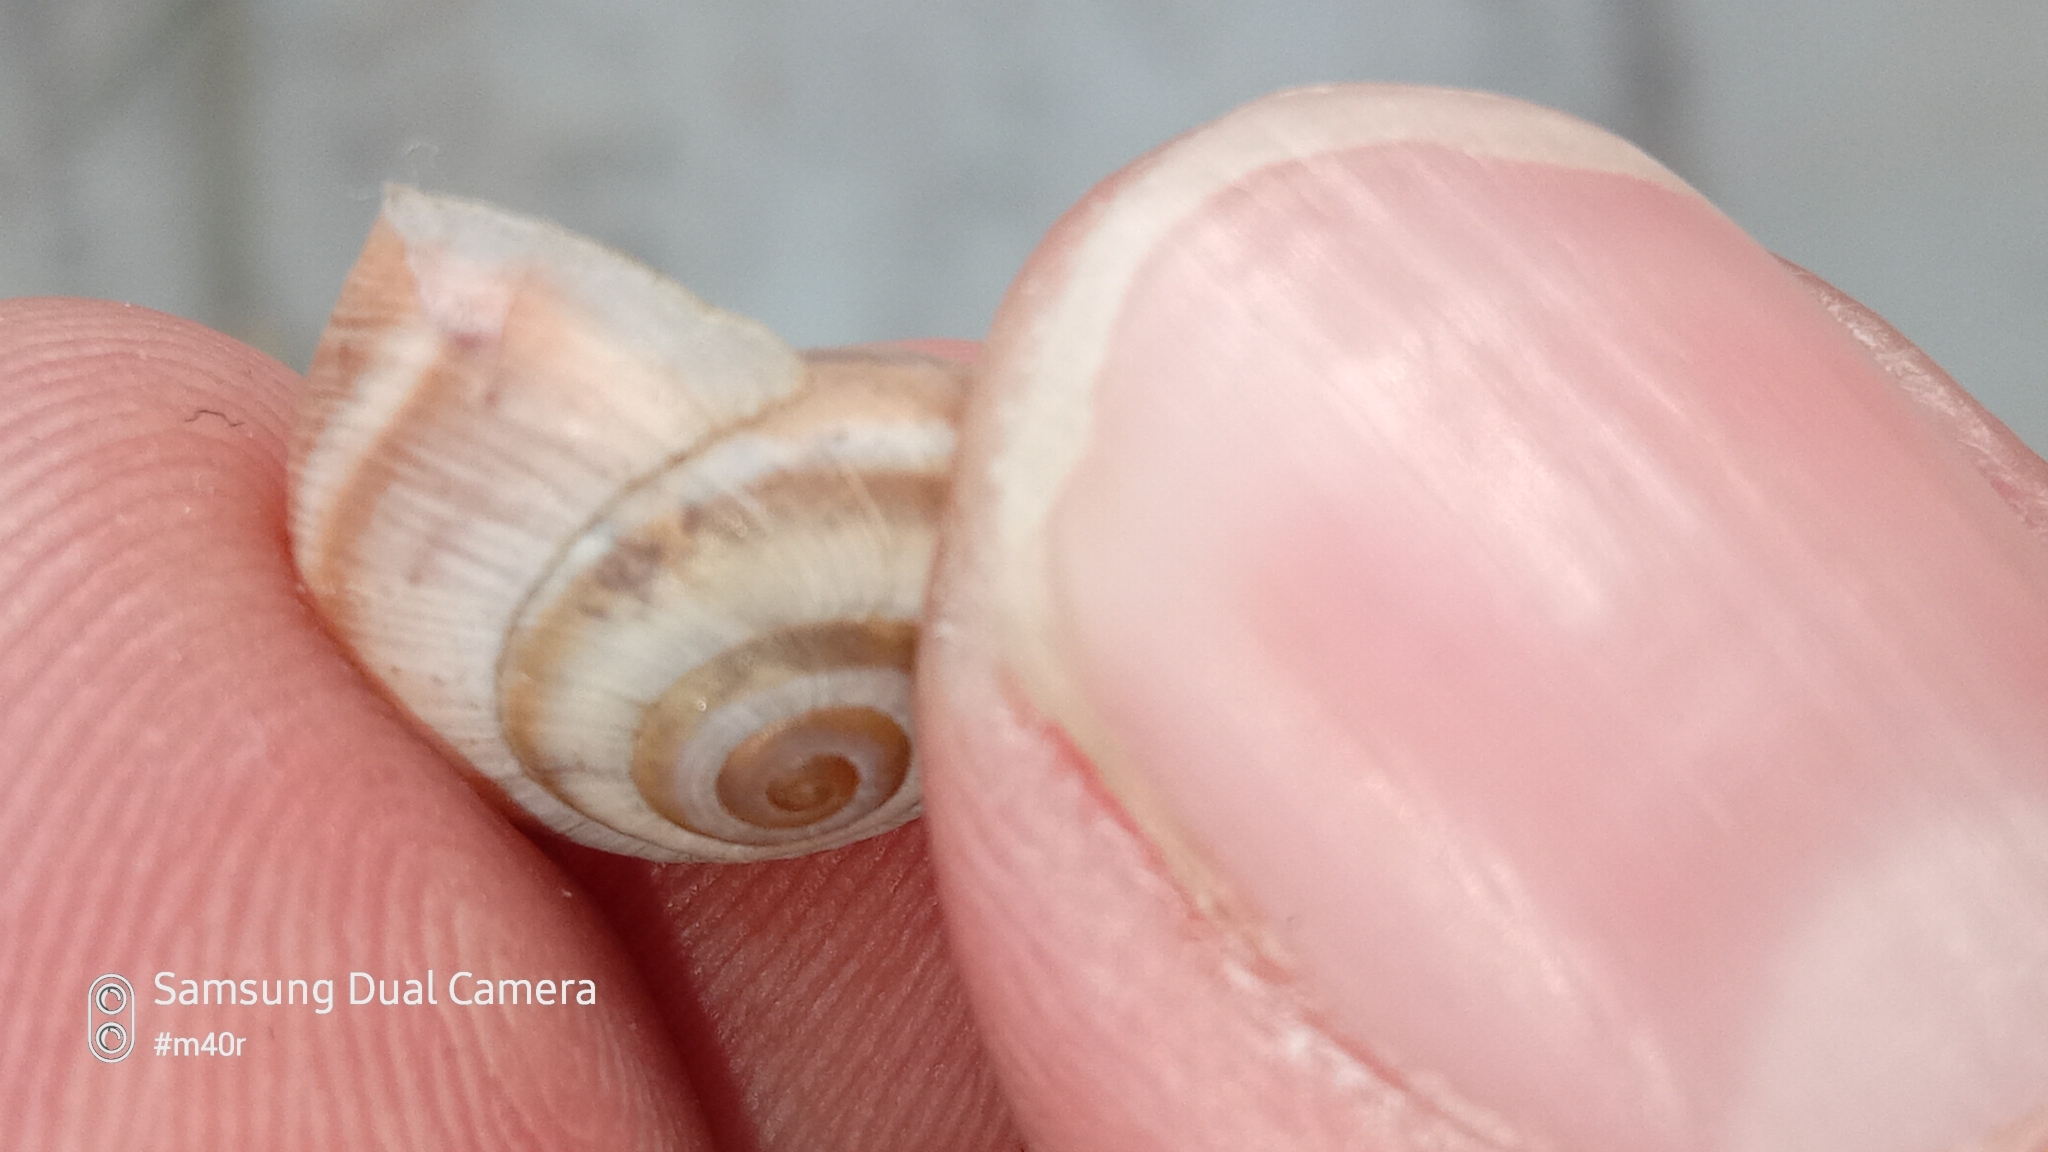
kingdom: Animalia
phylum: Mollusca
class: Gastropoda
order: Stylommatophora
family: Hygromiidae
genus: Harmozica
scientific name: Harmozica ravergiensis
